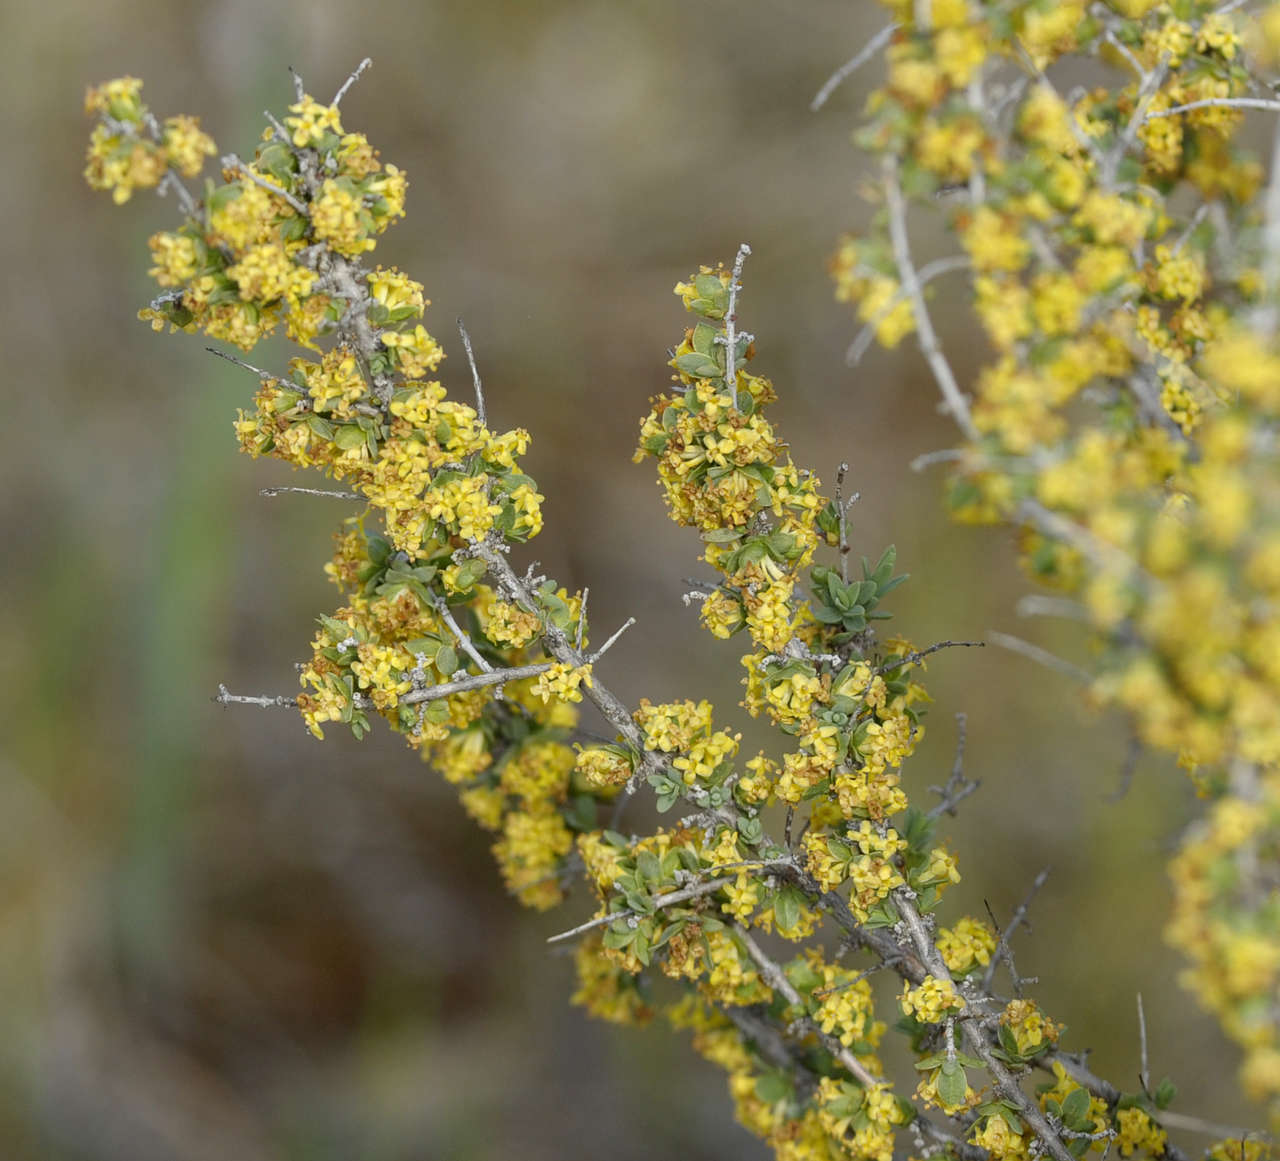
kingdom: Plantae
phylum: Tracheophyta
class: Magnoliopsida
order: Malvales
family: Thymelaeaceae
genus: Pimelea
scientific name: Pimelea spinescens
